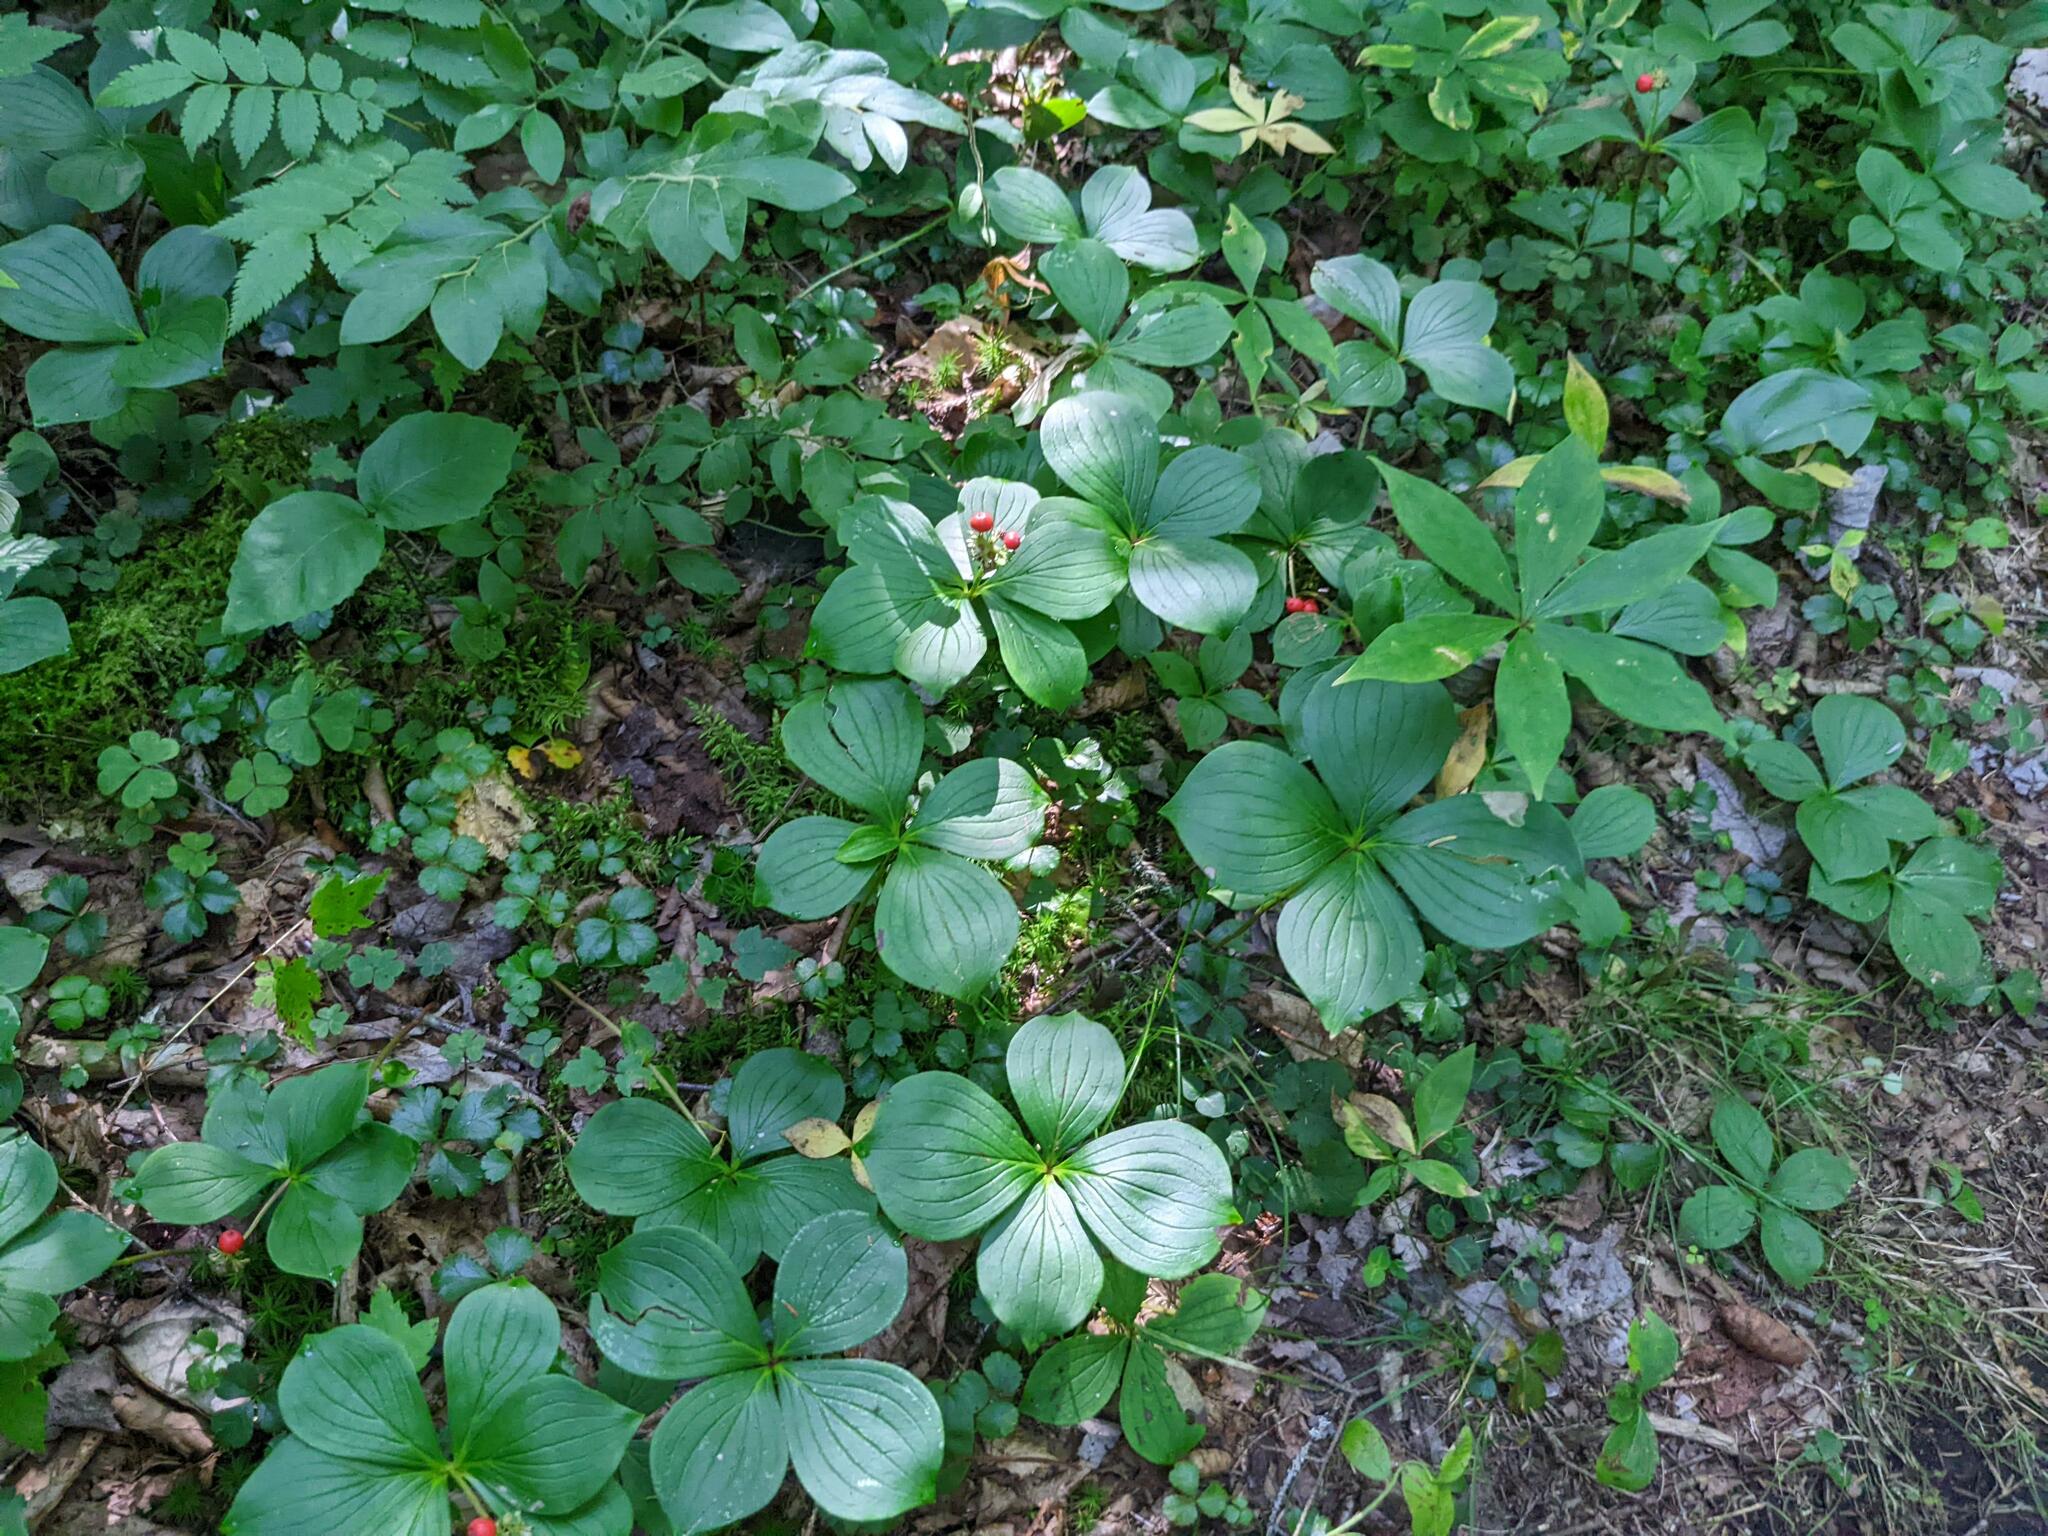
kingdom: Plantae
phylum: Tracheophyta
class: Magnoliopsida
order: Cornales
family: Cornaceae
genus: Cornus
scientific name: Cornus canadensis
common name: Creeping dogwood
